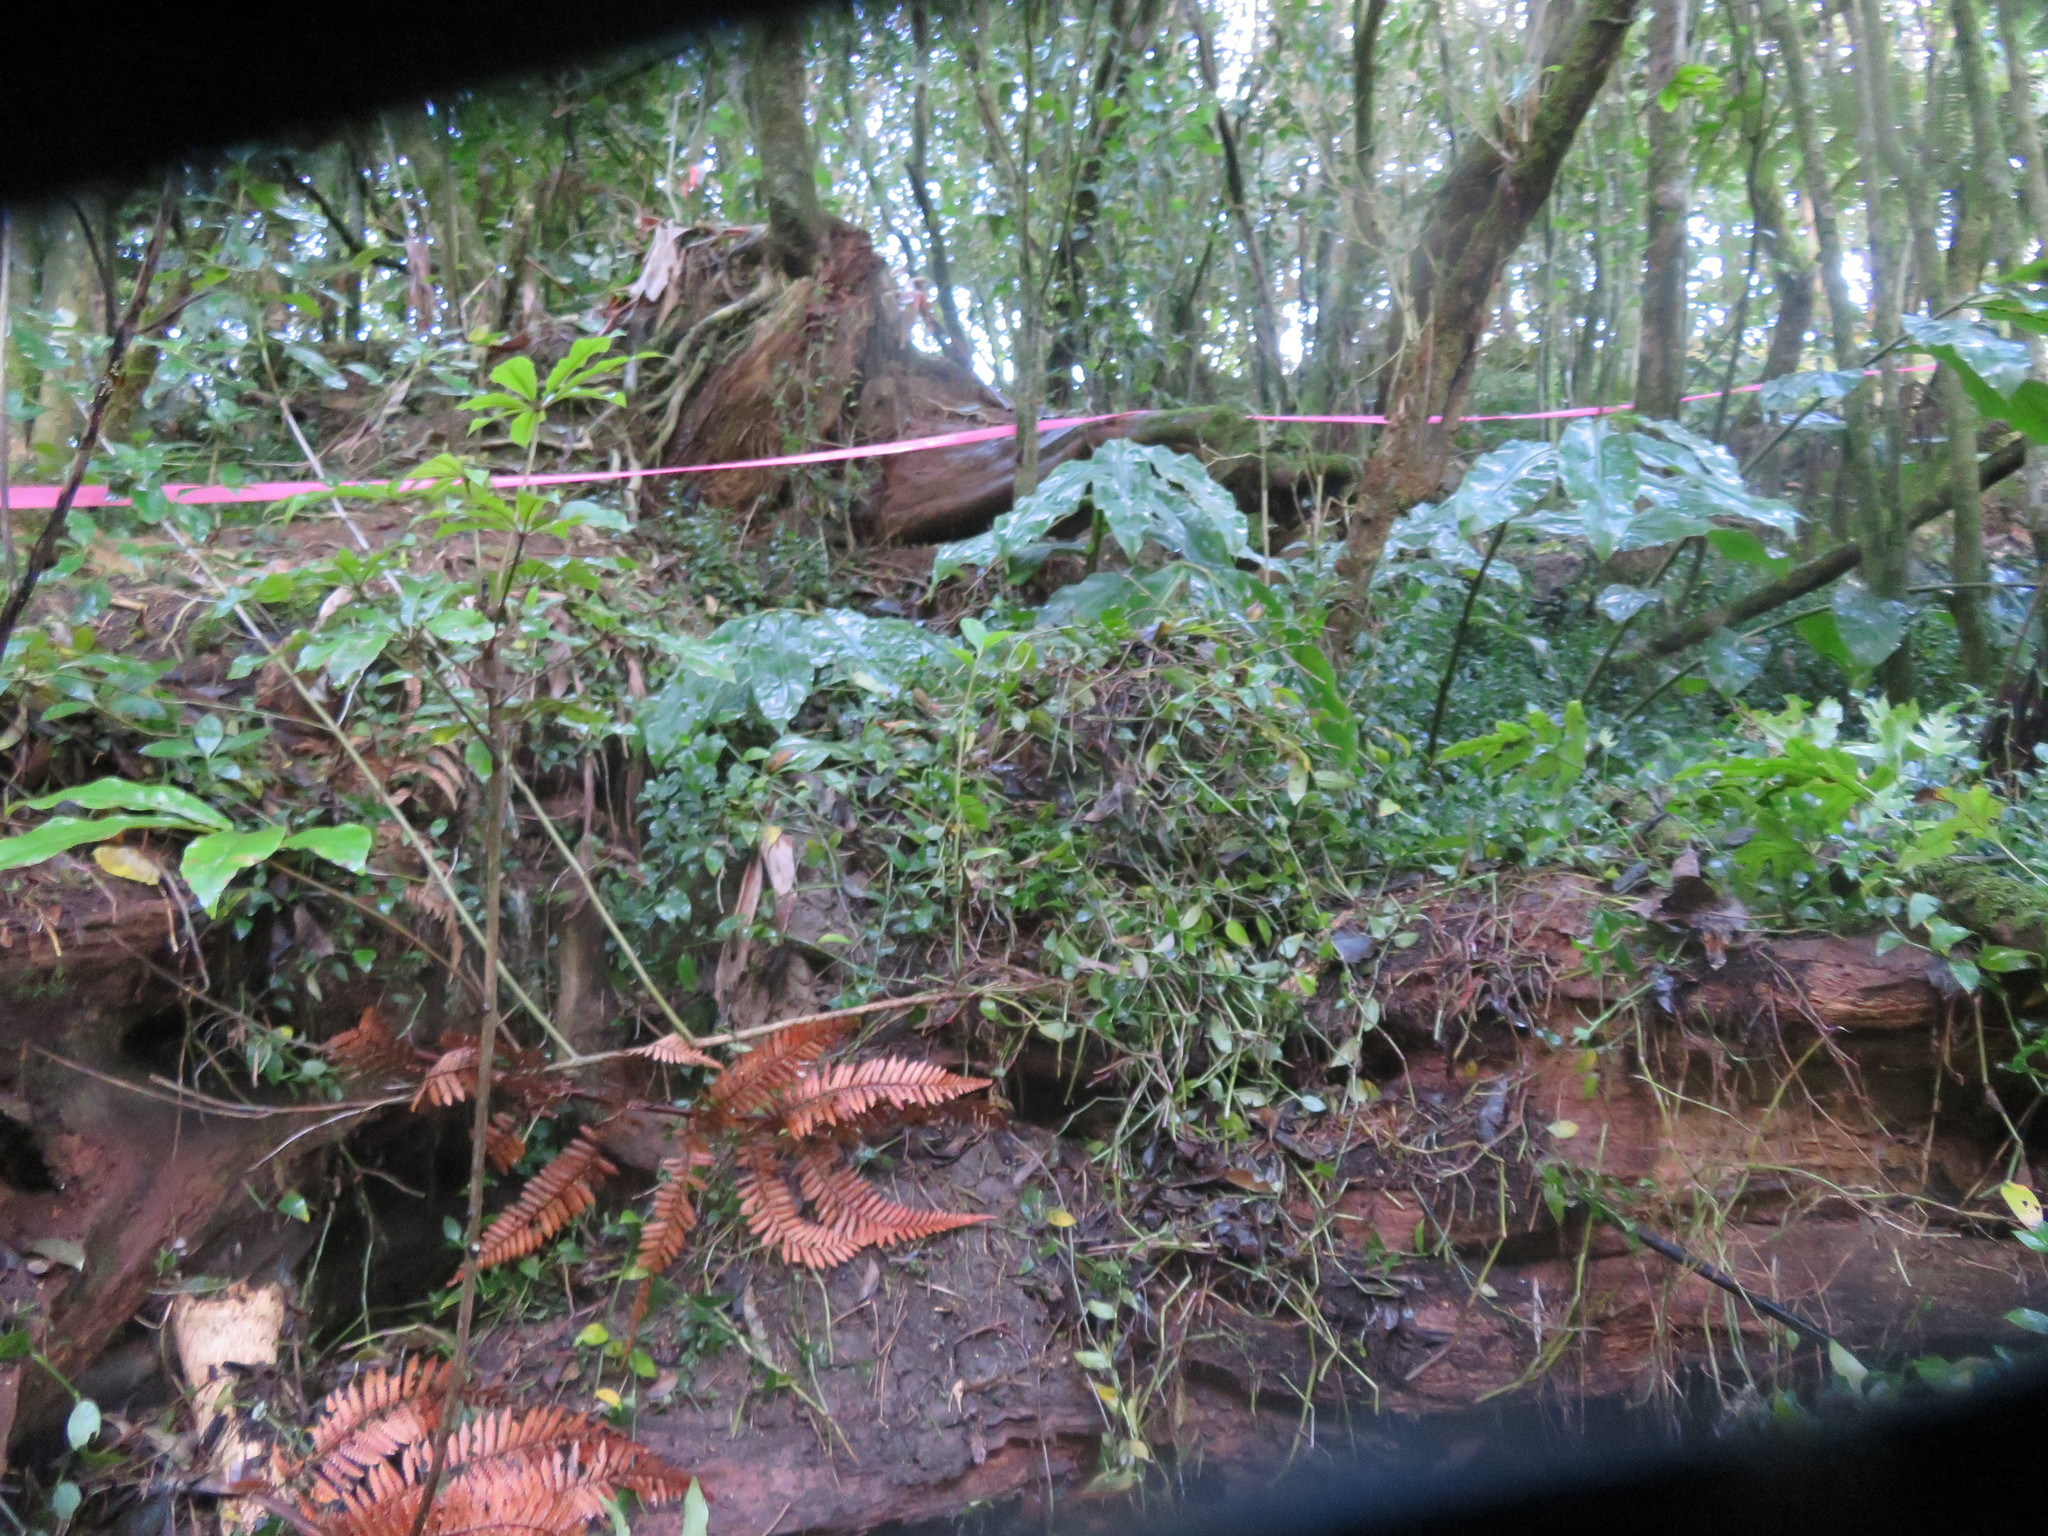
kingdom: Plantae
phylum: Tracheophyta
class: Liliopsida
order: Zingiberales
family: Zingiberaceae
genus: Hedychium
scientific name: Hedychium gardnerianum
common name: Himalayan ginger
